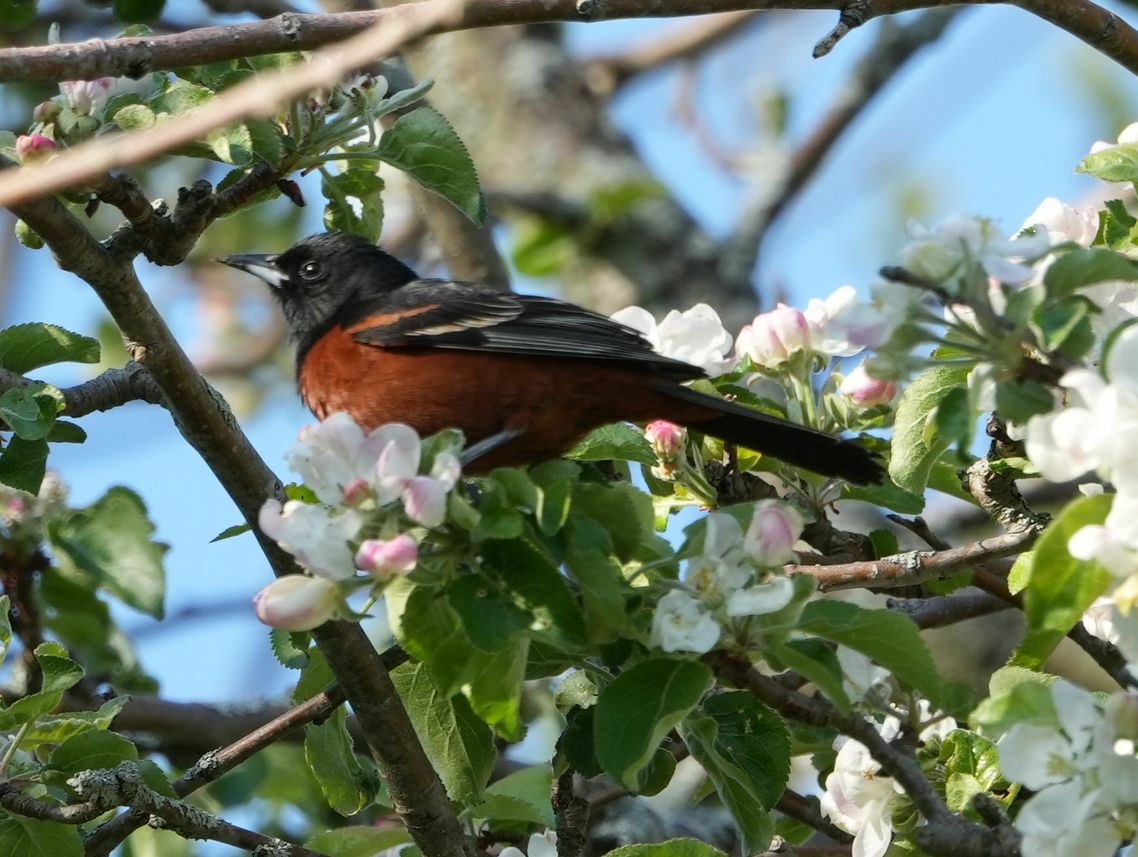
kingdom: Animalia
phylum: Chordata
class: Aves
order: Passeriformes
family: Icteridae
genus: Icterus
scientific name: Icterus spurius
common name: Orchard oriole
